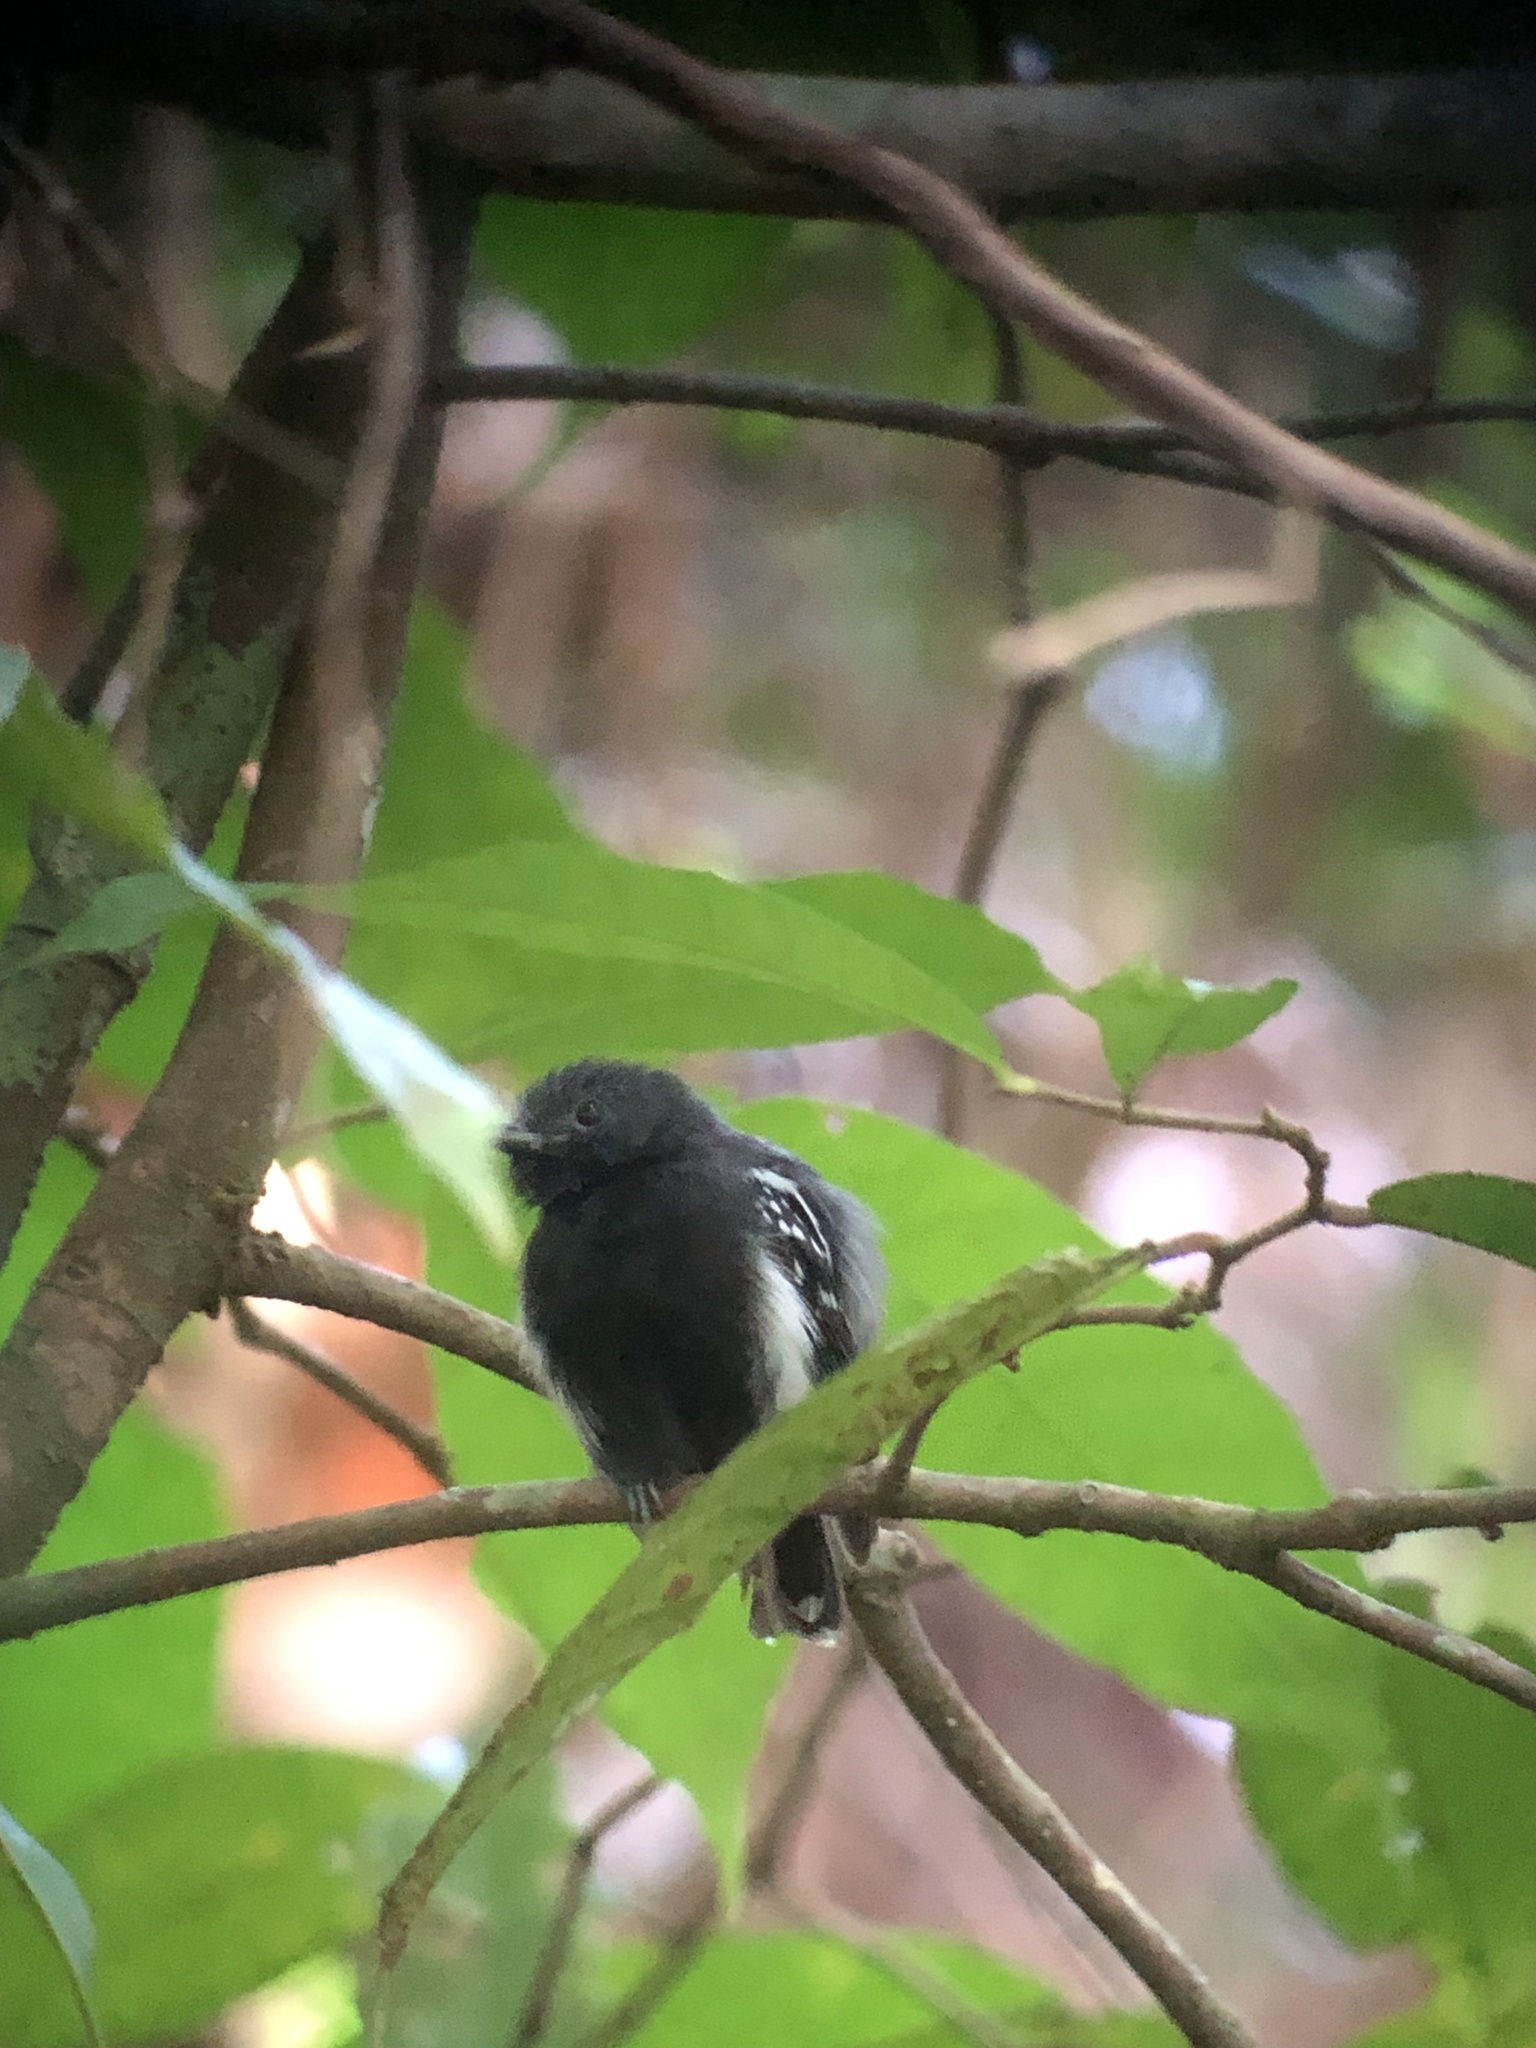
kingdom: Animalia
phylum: Chordata
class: Aves
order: Passeriformes
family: Thamnophilidae
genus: Myrmotherula
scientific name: Myrmotherula axillaris
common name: White-flanked antwren
